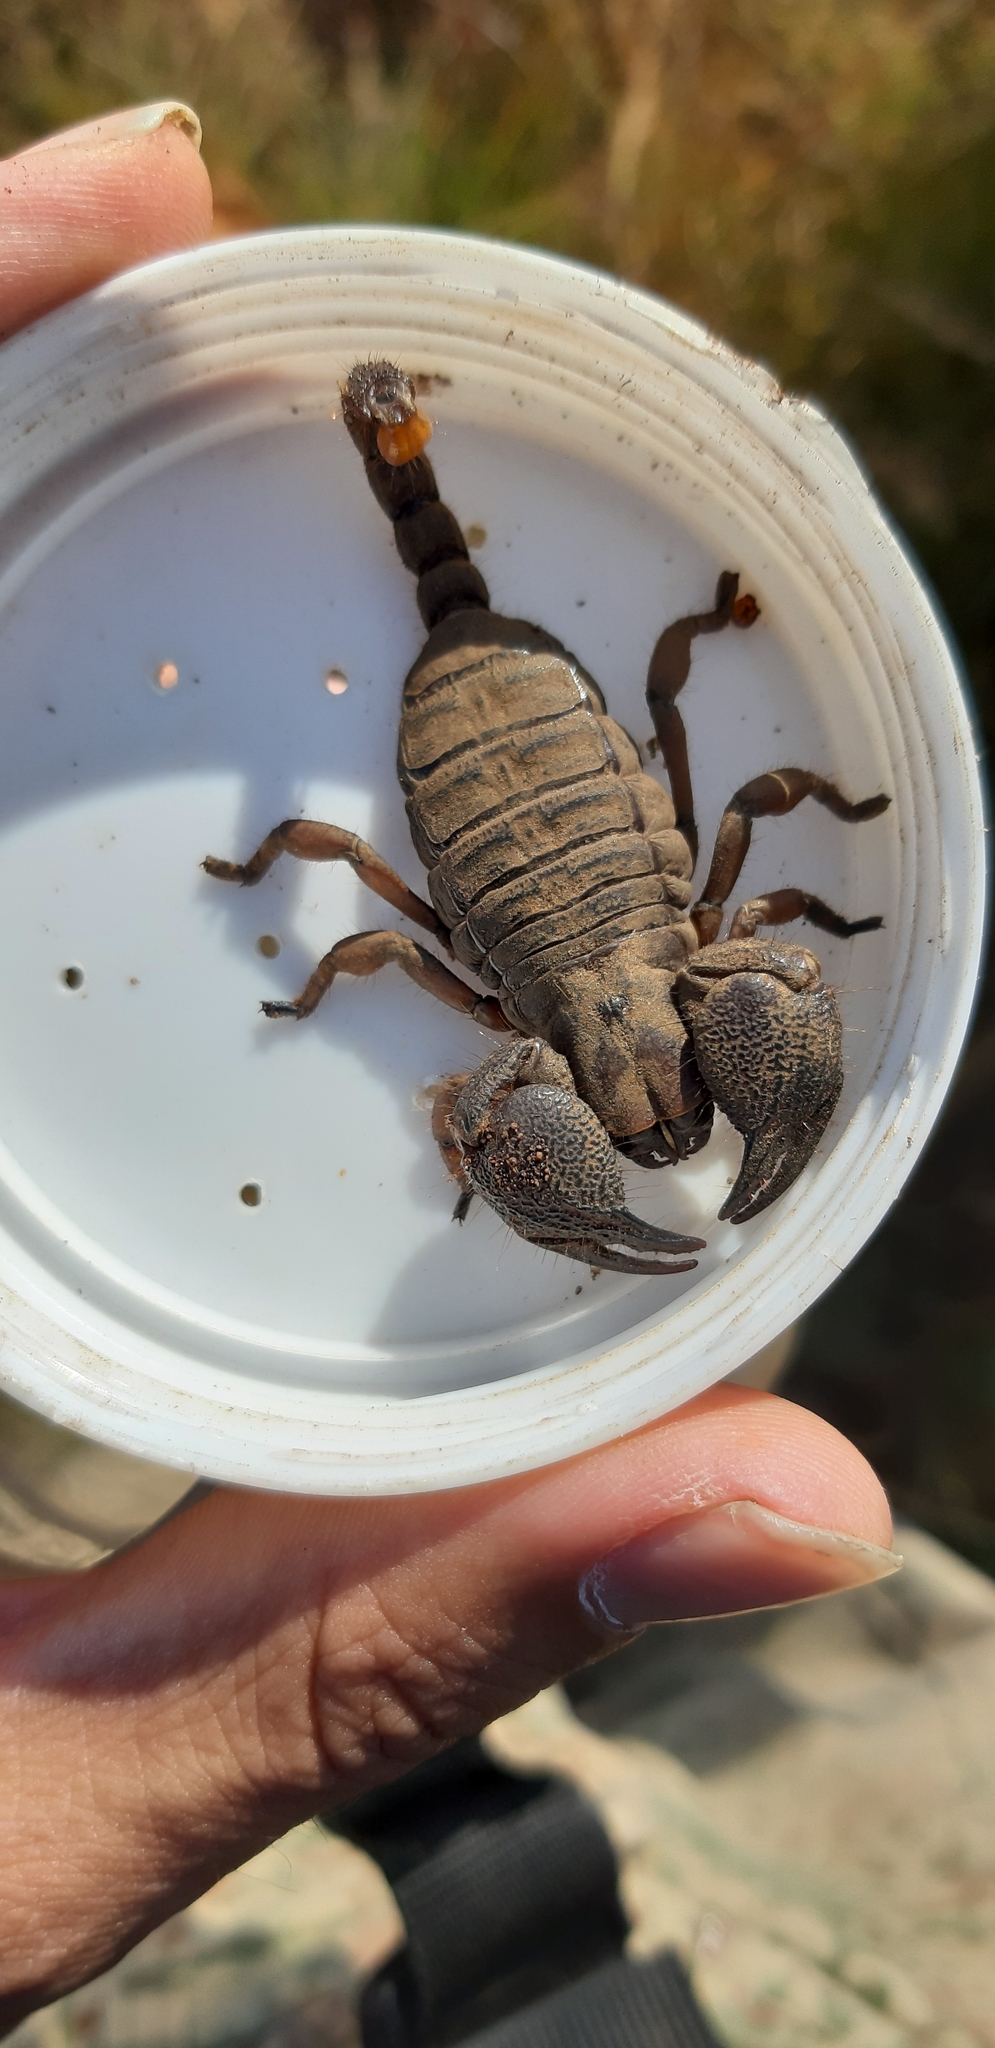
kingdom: Animalia
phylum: Arthropoda
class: Arachnida
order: Scorpiones
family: Scorpionidae
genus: Opistophthalmus
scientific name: Opistophthalmus pugnax
